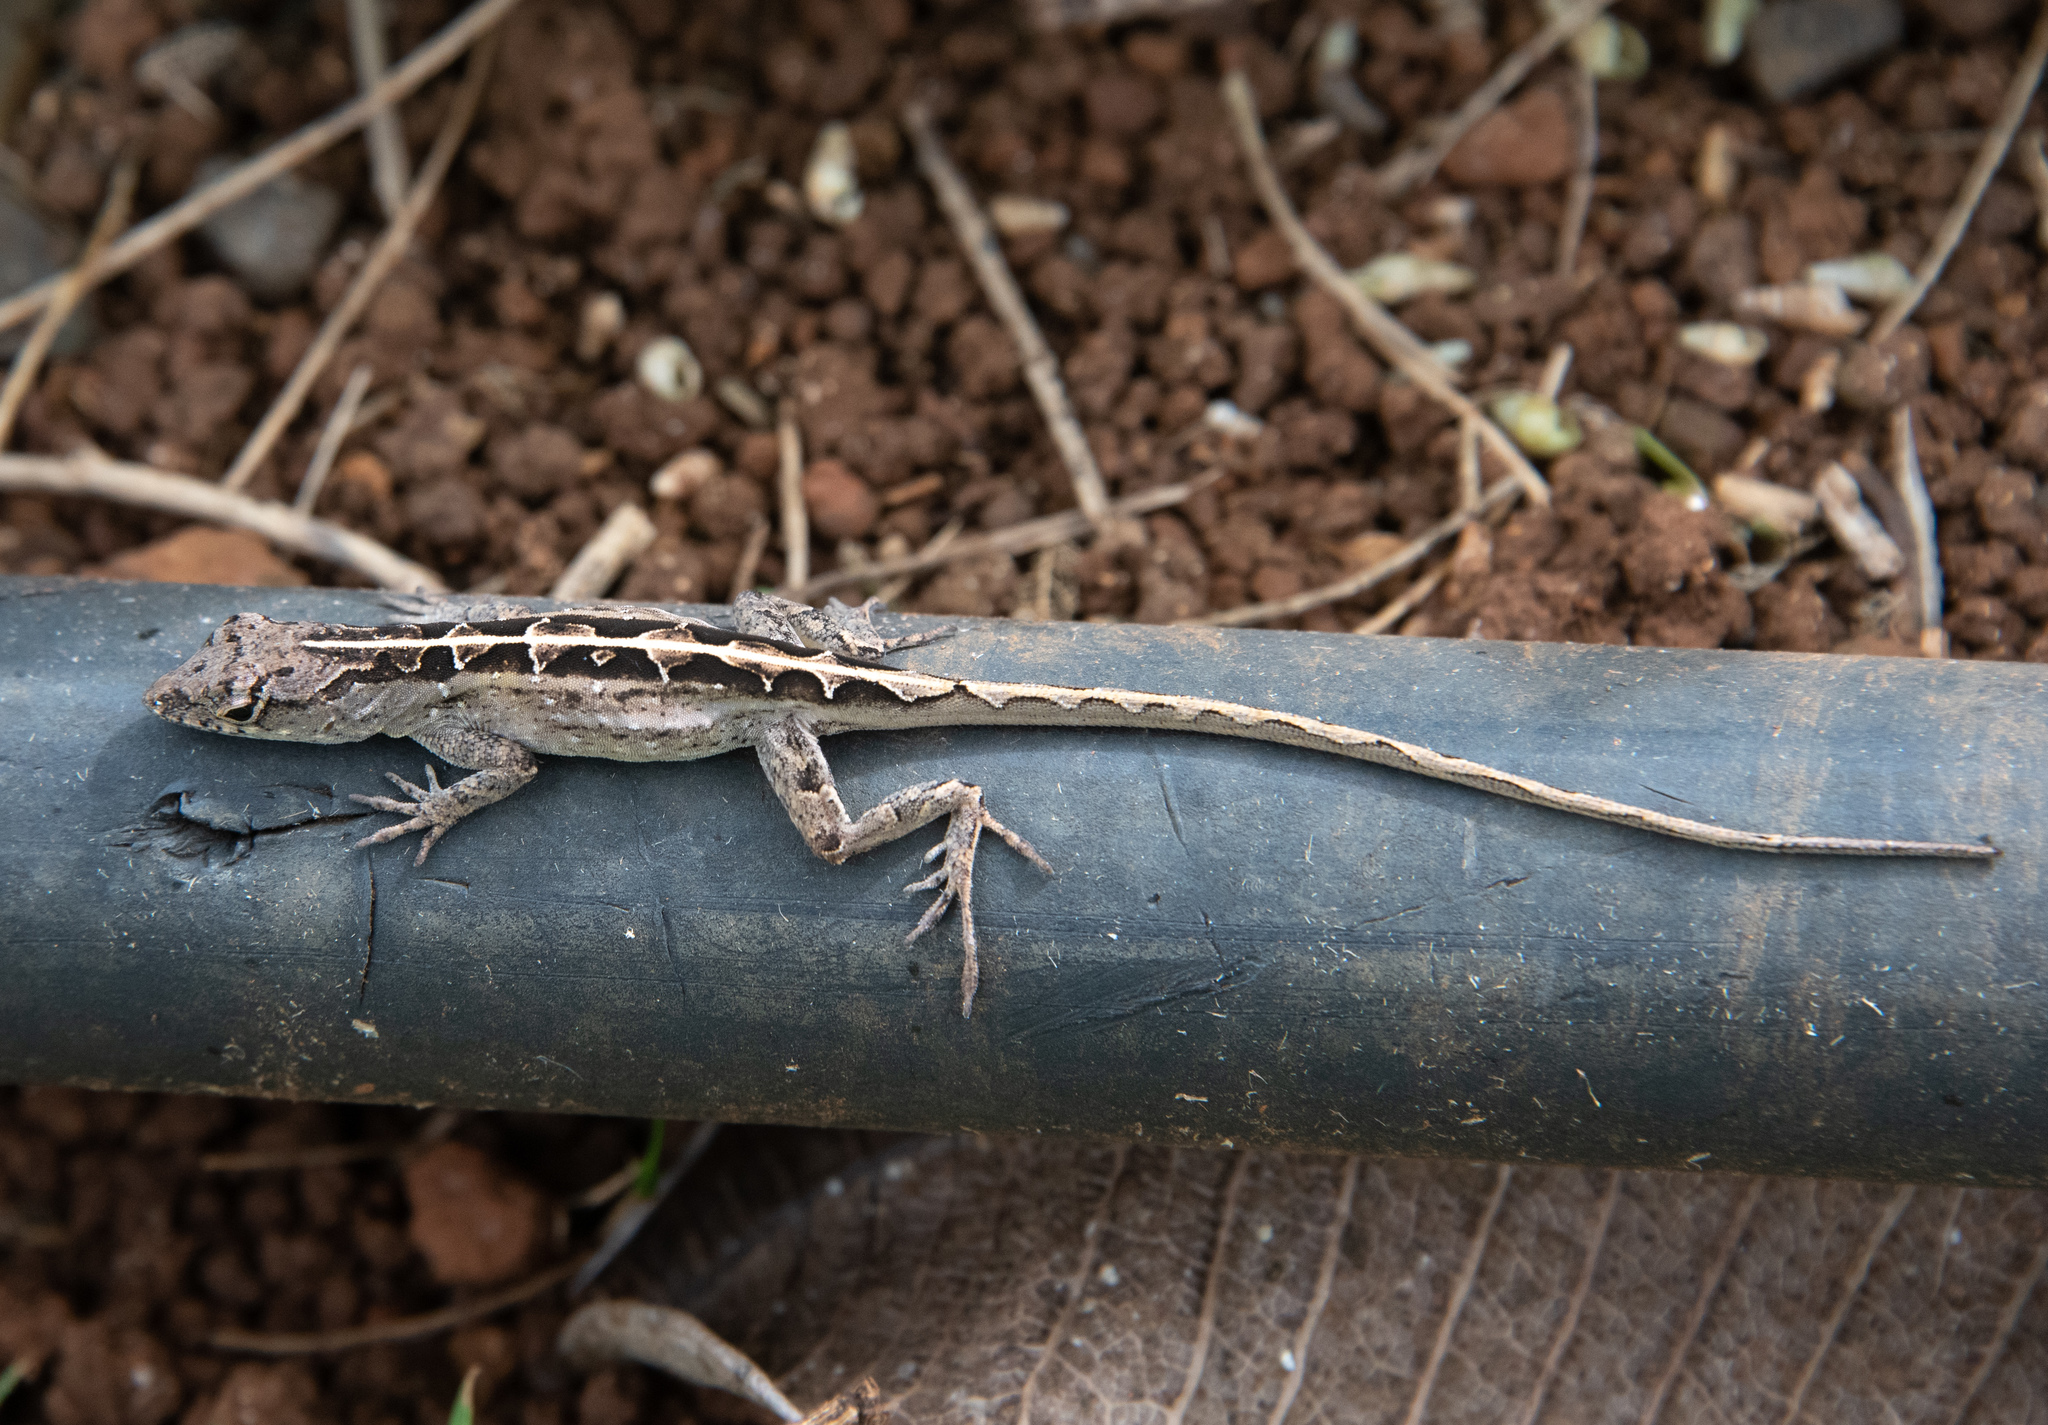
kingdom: Animalia
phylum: Chordata
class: Squamata
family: Dactyloidae
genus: Anolis
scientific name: Anolis sagrei
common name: Brown anole
